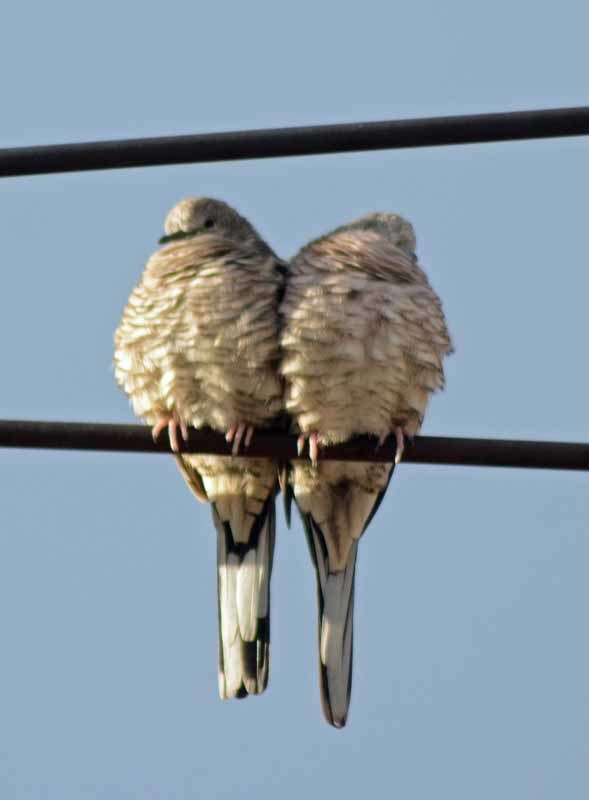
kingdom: Animalia
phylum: Chordata
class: Aves
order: Columbiformes
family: Columbidae
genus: Columbina
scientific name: Columbina inca
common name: Inca dove
